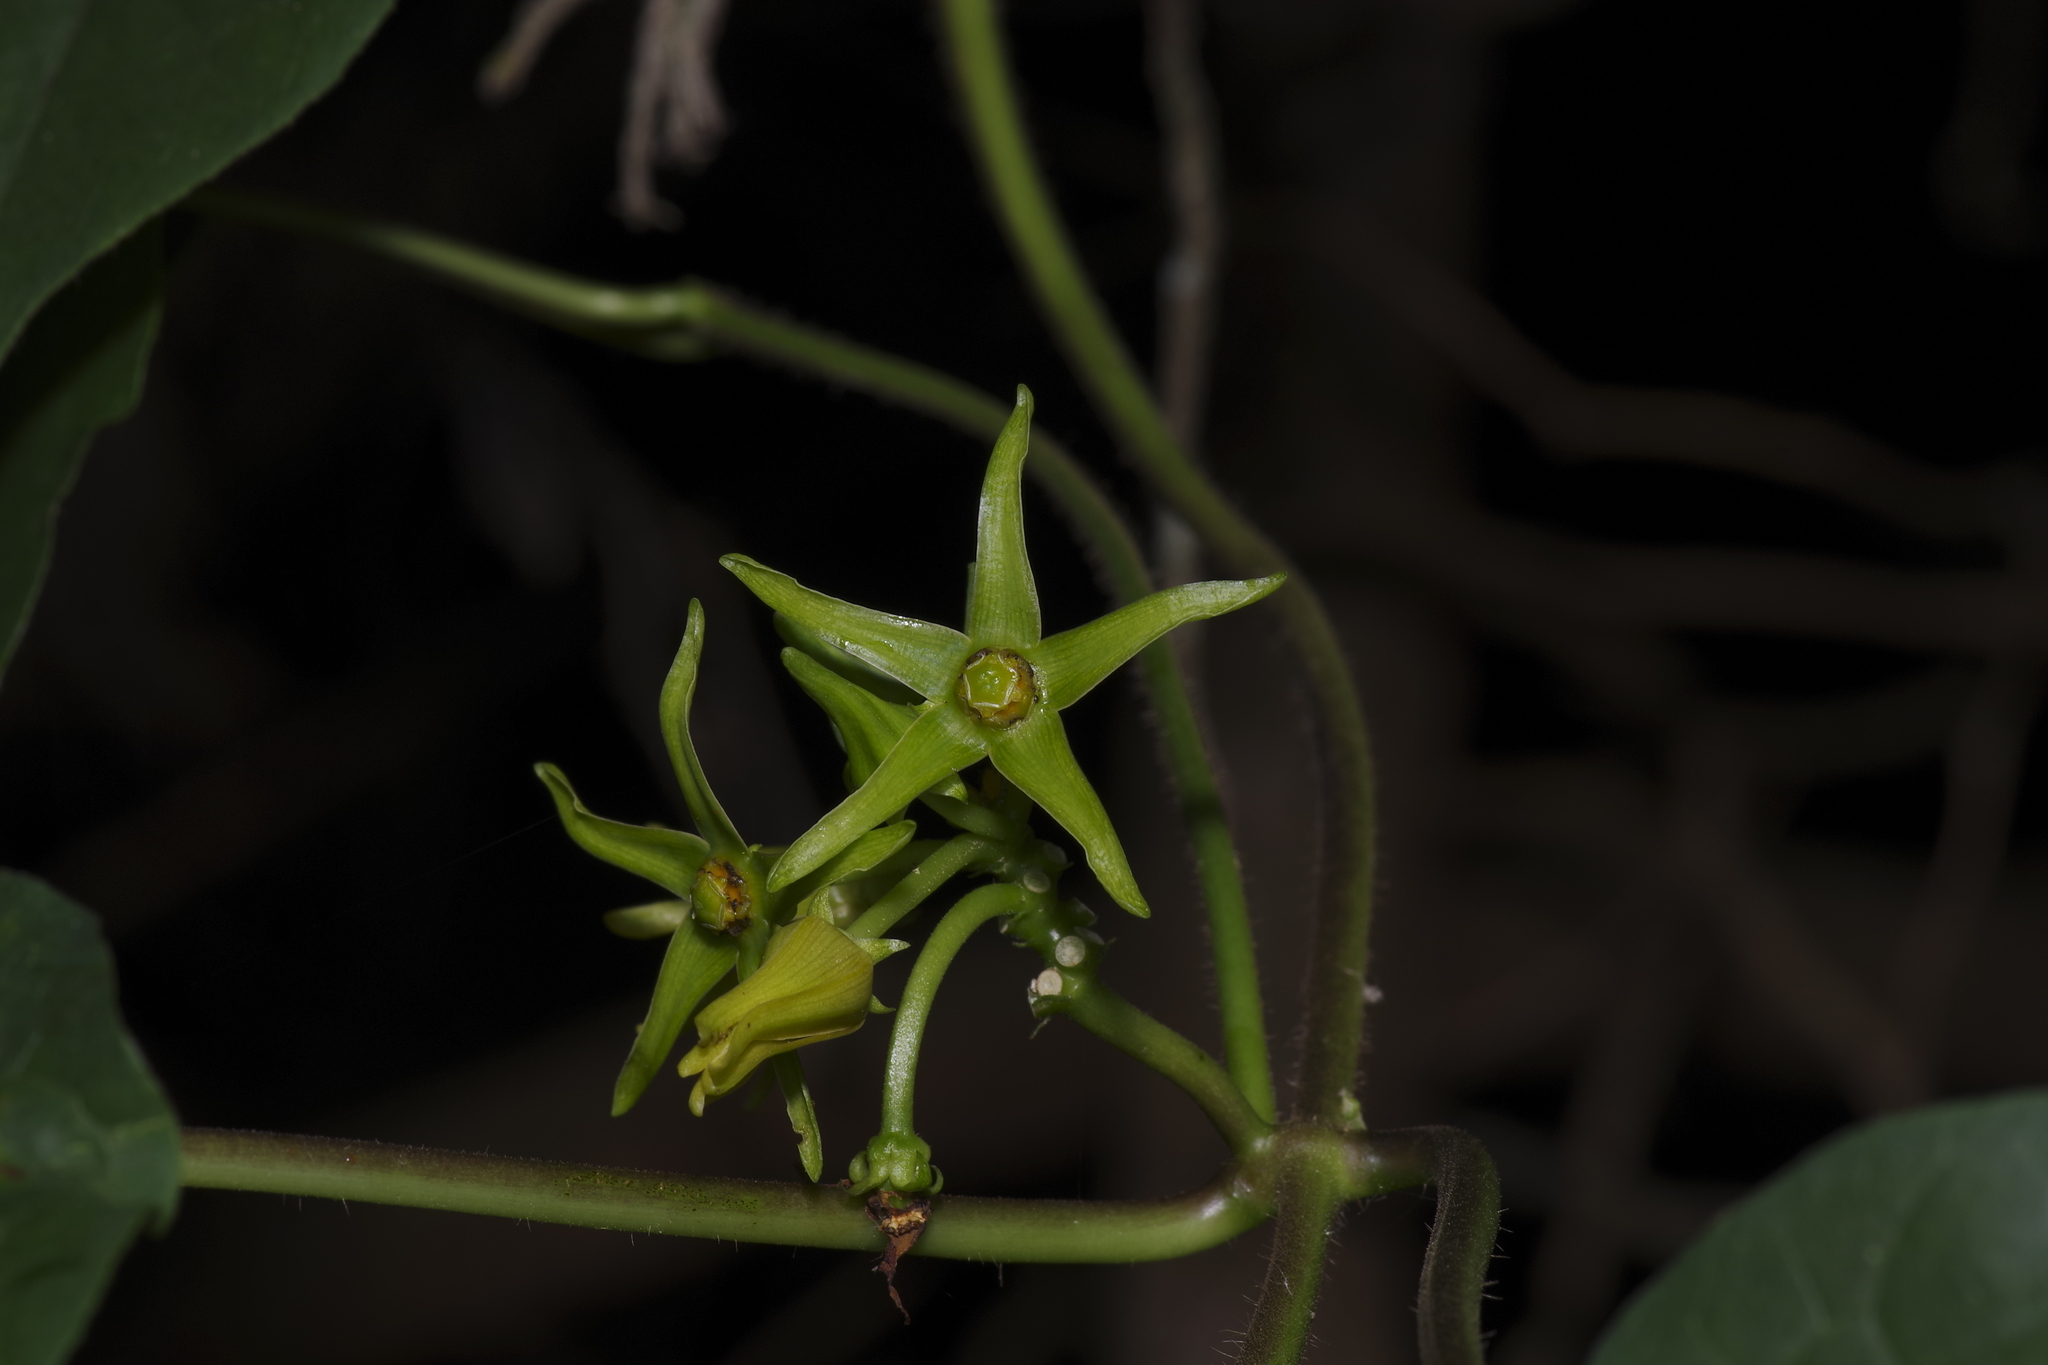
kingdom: Plantae
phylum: Tracheophyta
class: Magnoliopsida
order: Gentianales
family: Apocynaceae
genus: Gonolobus
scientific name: Gonolobus suberosus
